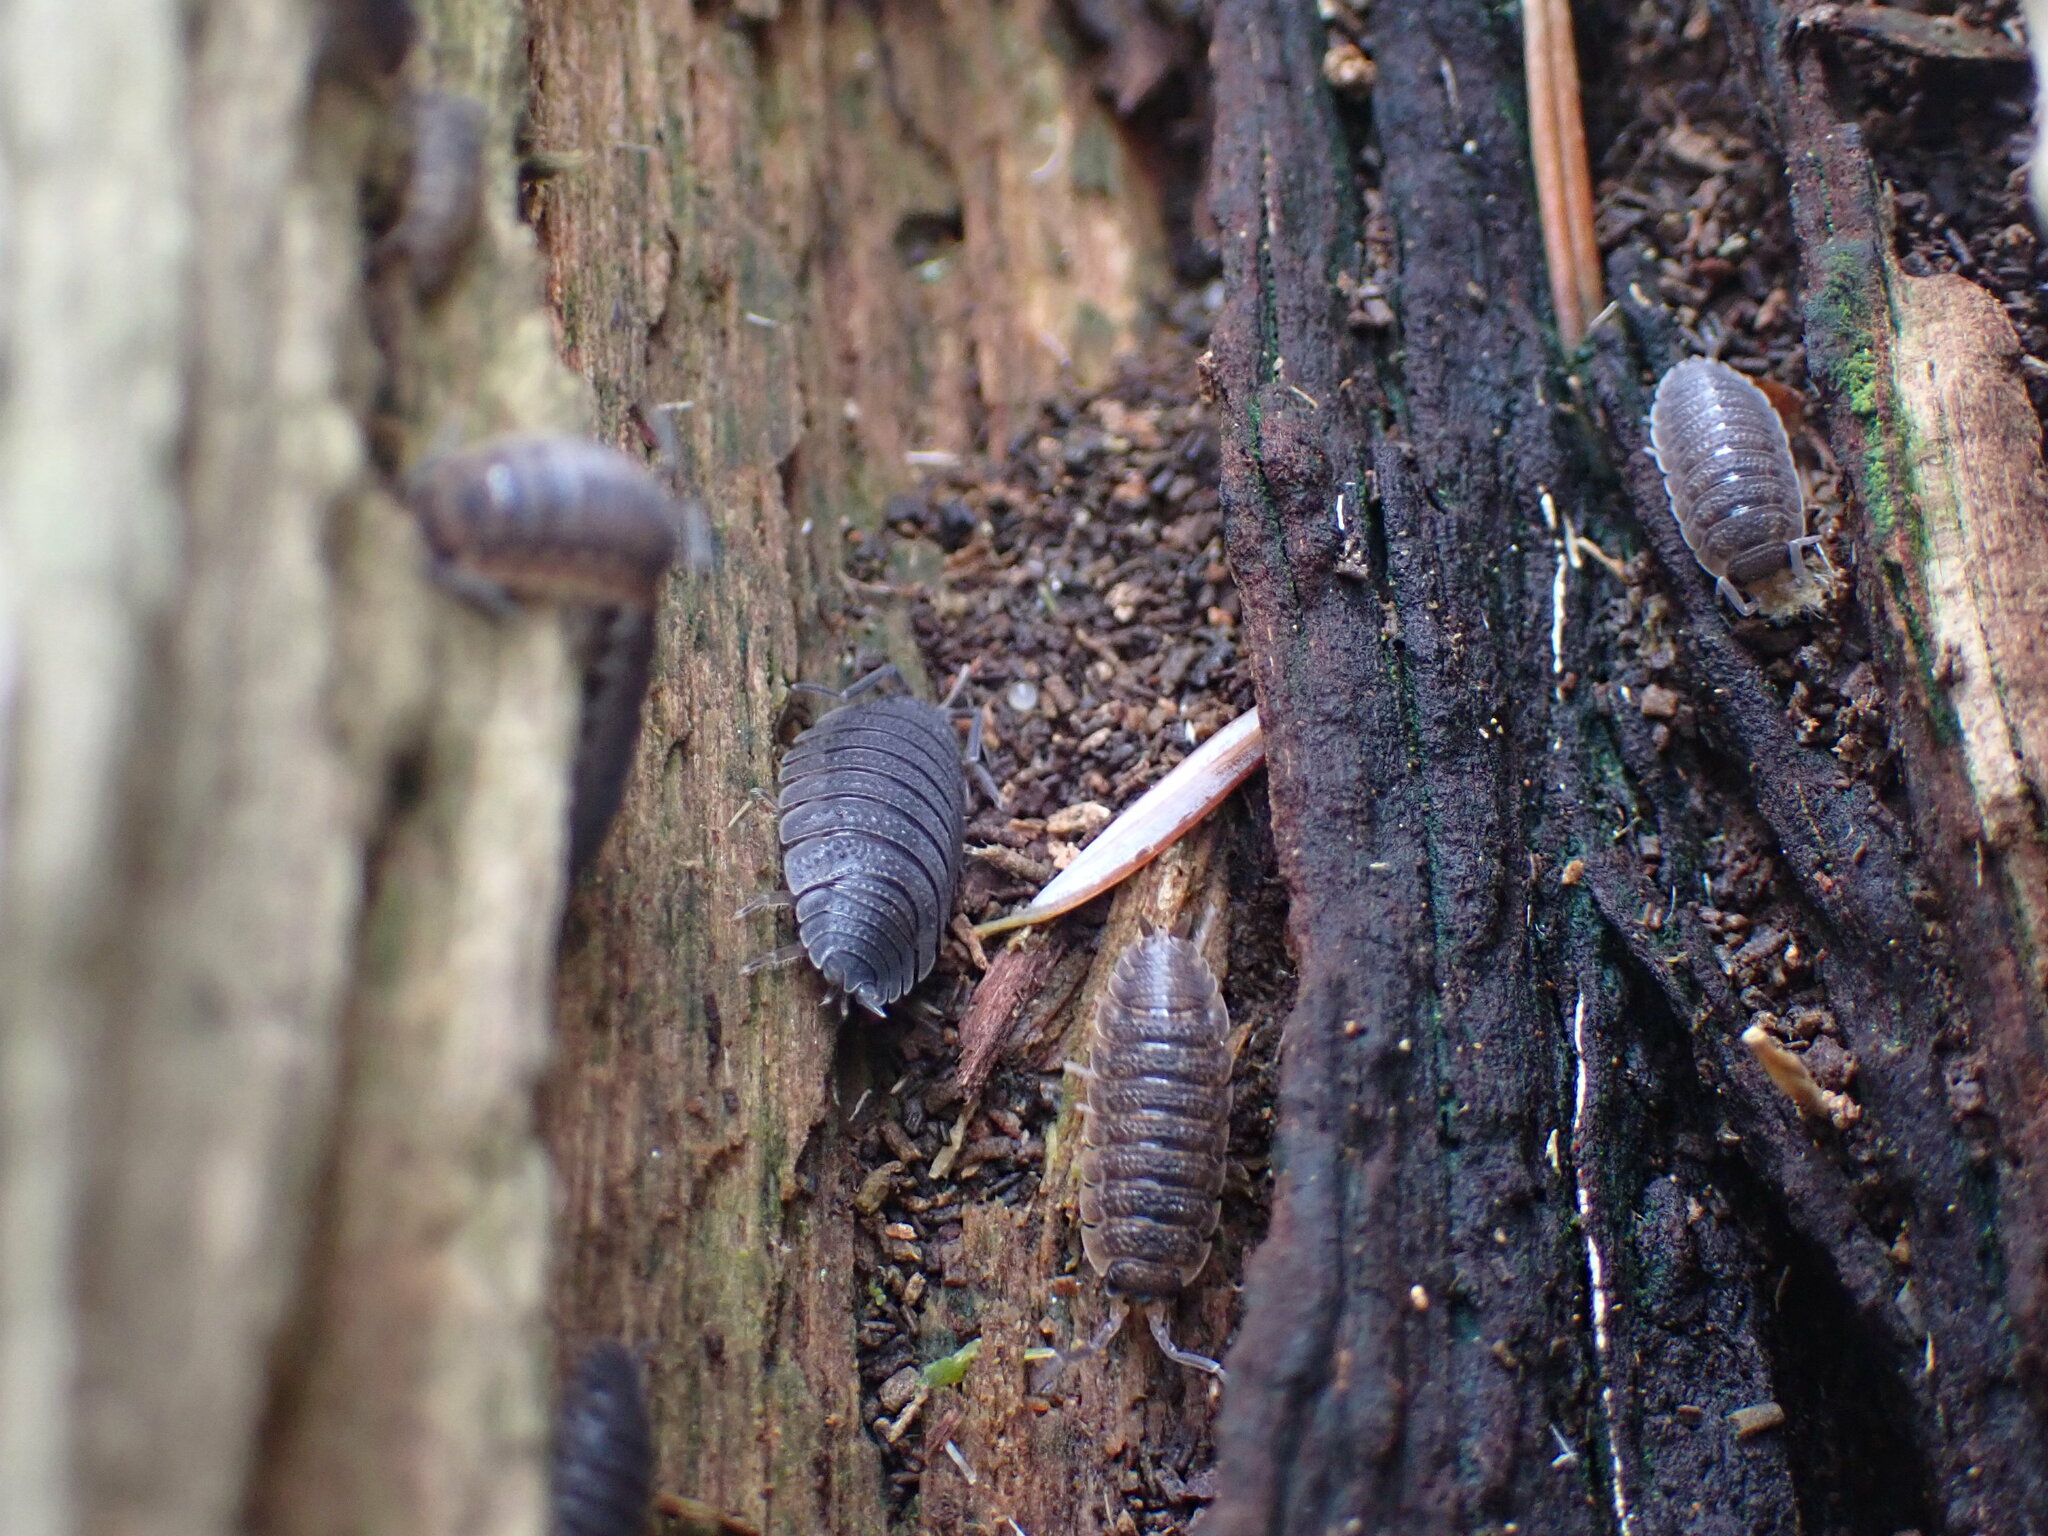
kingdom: Animalia
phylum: Arthropoda
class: Malacostraca
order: Isopoda
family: Porcellionidae
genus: Porcellio
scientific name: Porcellio scaber
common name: Common rough woodlouse
